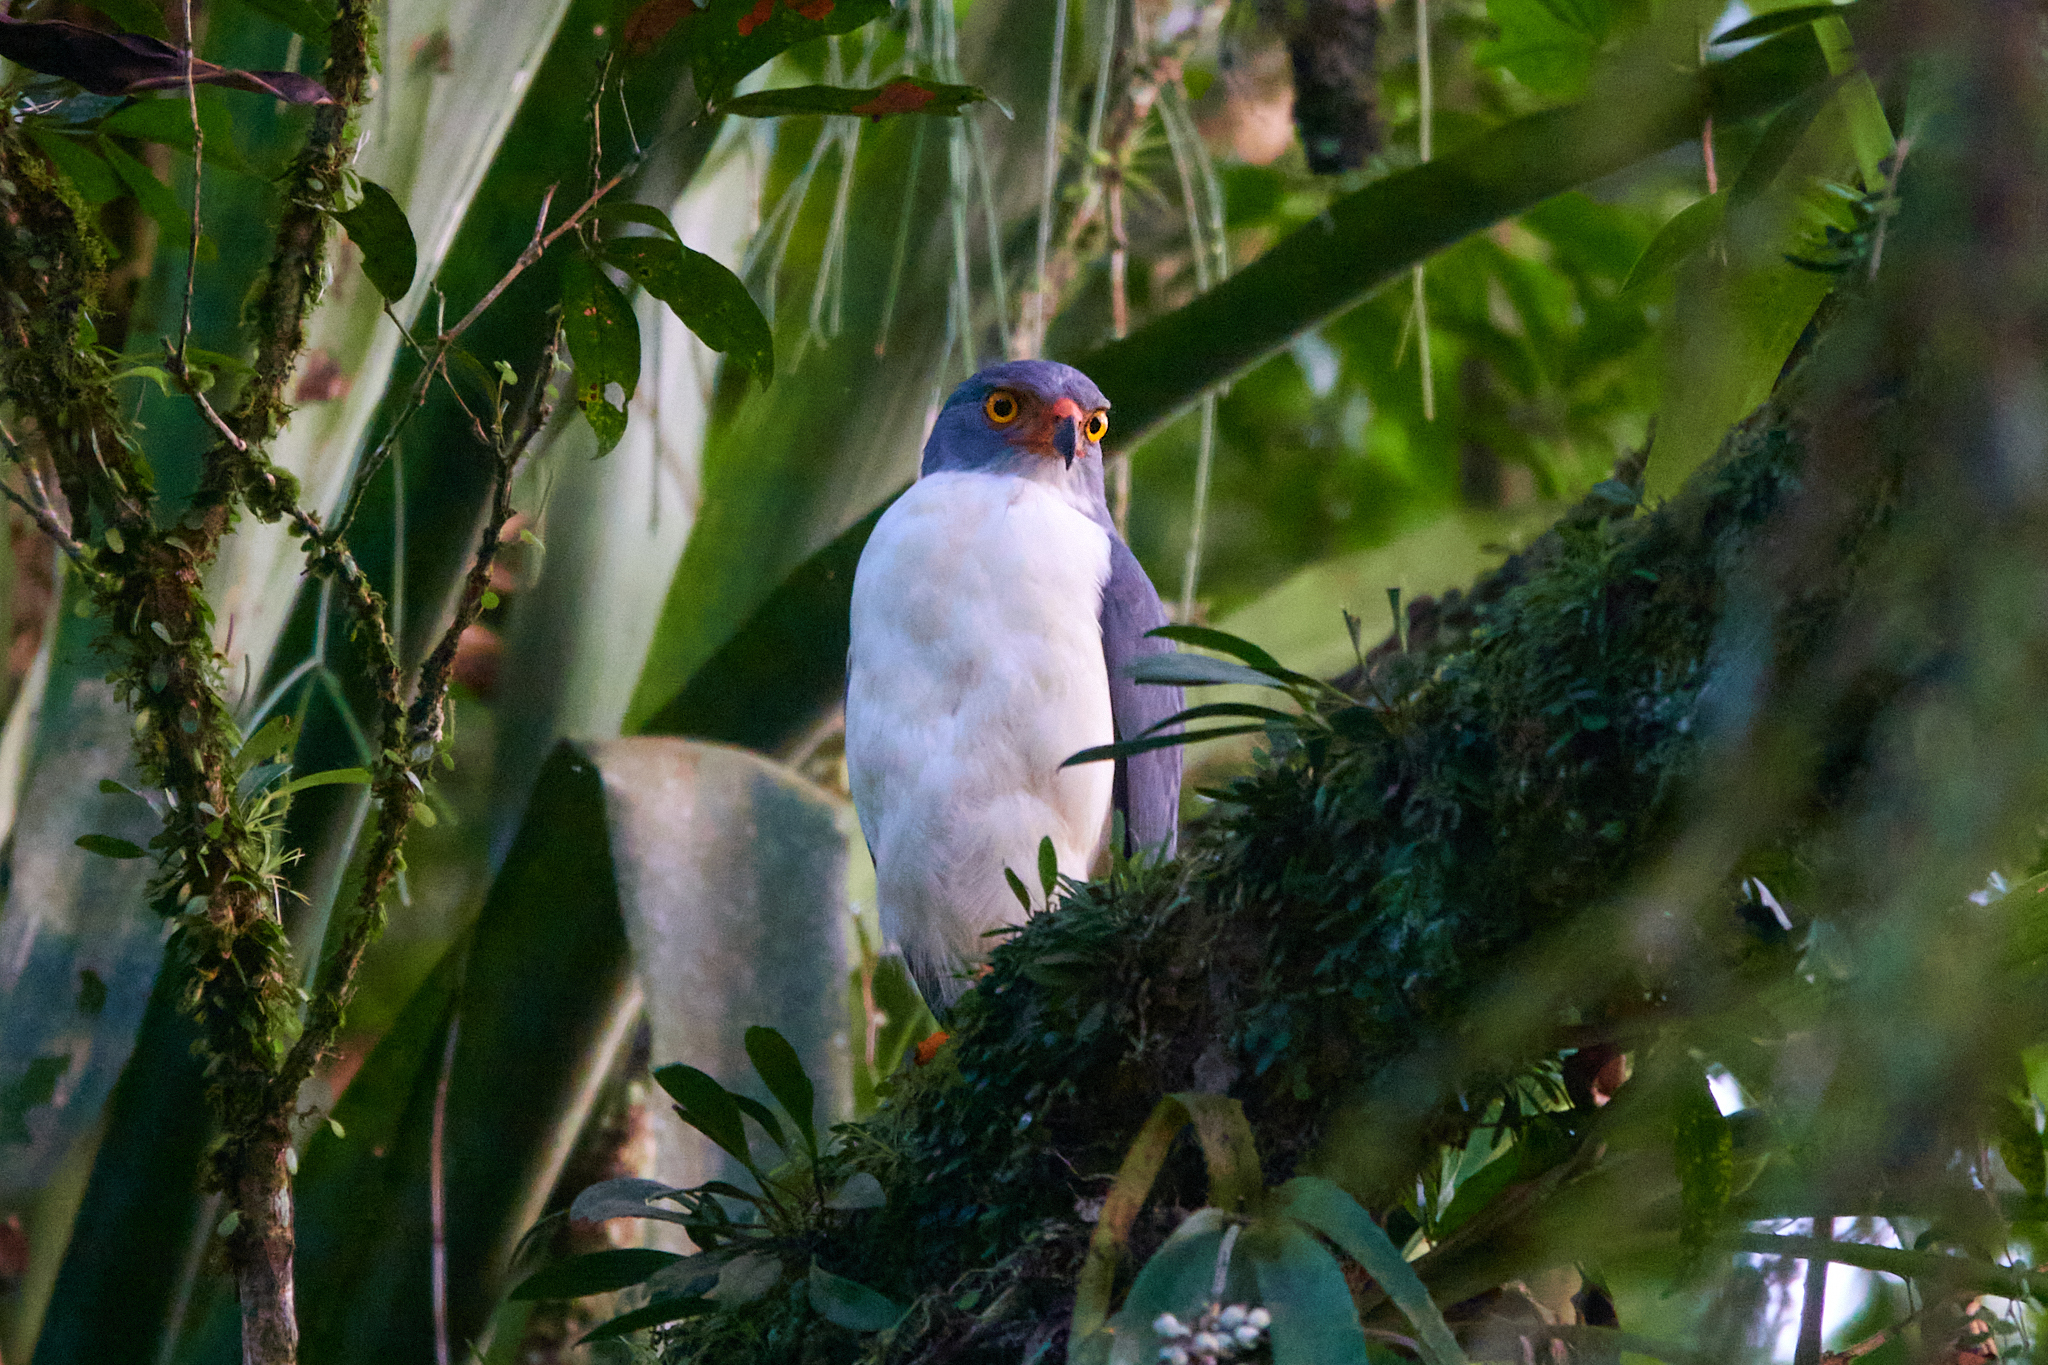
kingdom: Animalia
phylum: Chordata
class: Aves
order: Accipitriformes
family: Accipitridae
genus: Leucopternis
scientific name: Leucopternis semiplumbeus
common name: Semiplumbeous hawk
